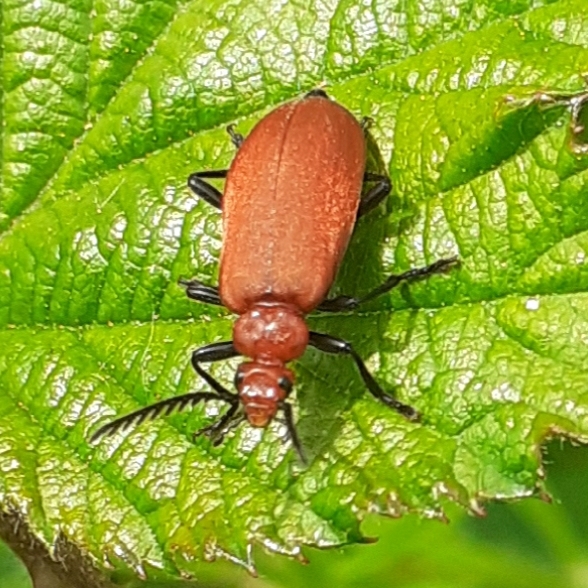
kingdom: Animalia
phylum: Arthropoda
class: Insecta
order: Coleoptera
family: Pyrochroidae
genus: Pyrochroa
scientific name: Pyrochroa serraticornis
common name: Red-headed cardinal beetle
